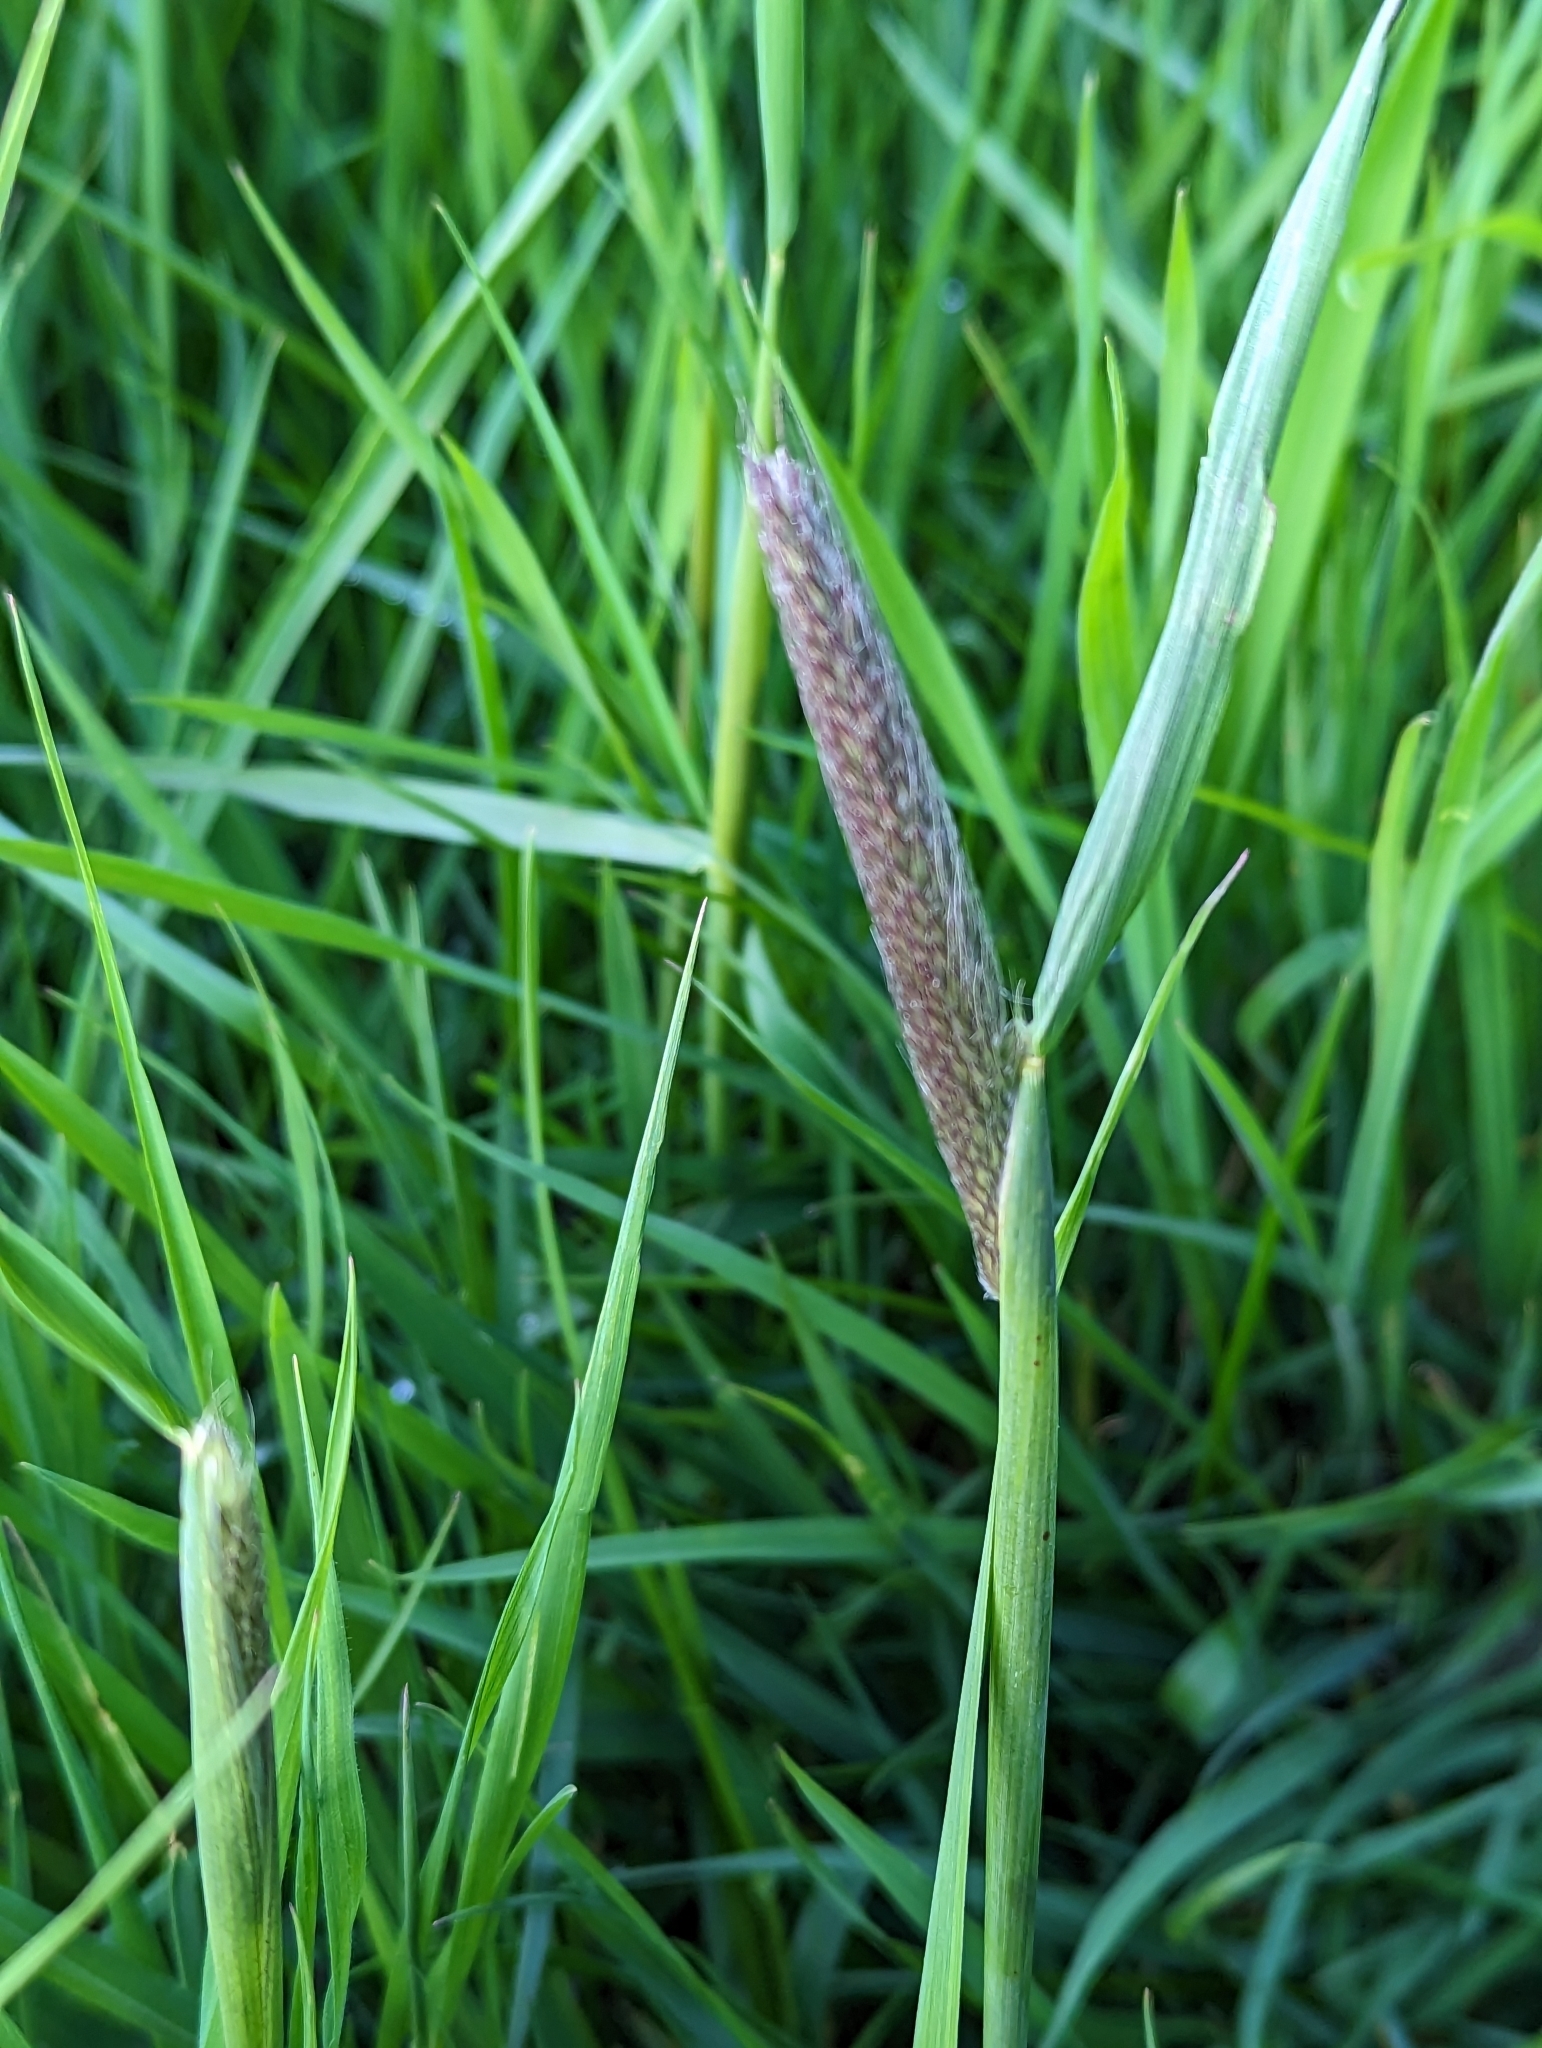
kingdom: Plantae
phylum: Tracheophyta
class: Liliopsida
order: Poales
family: Poaceae
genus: Alopecurus
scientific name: Alopecurus pratensis
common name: Meadow foxtail
